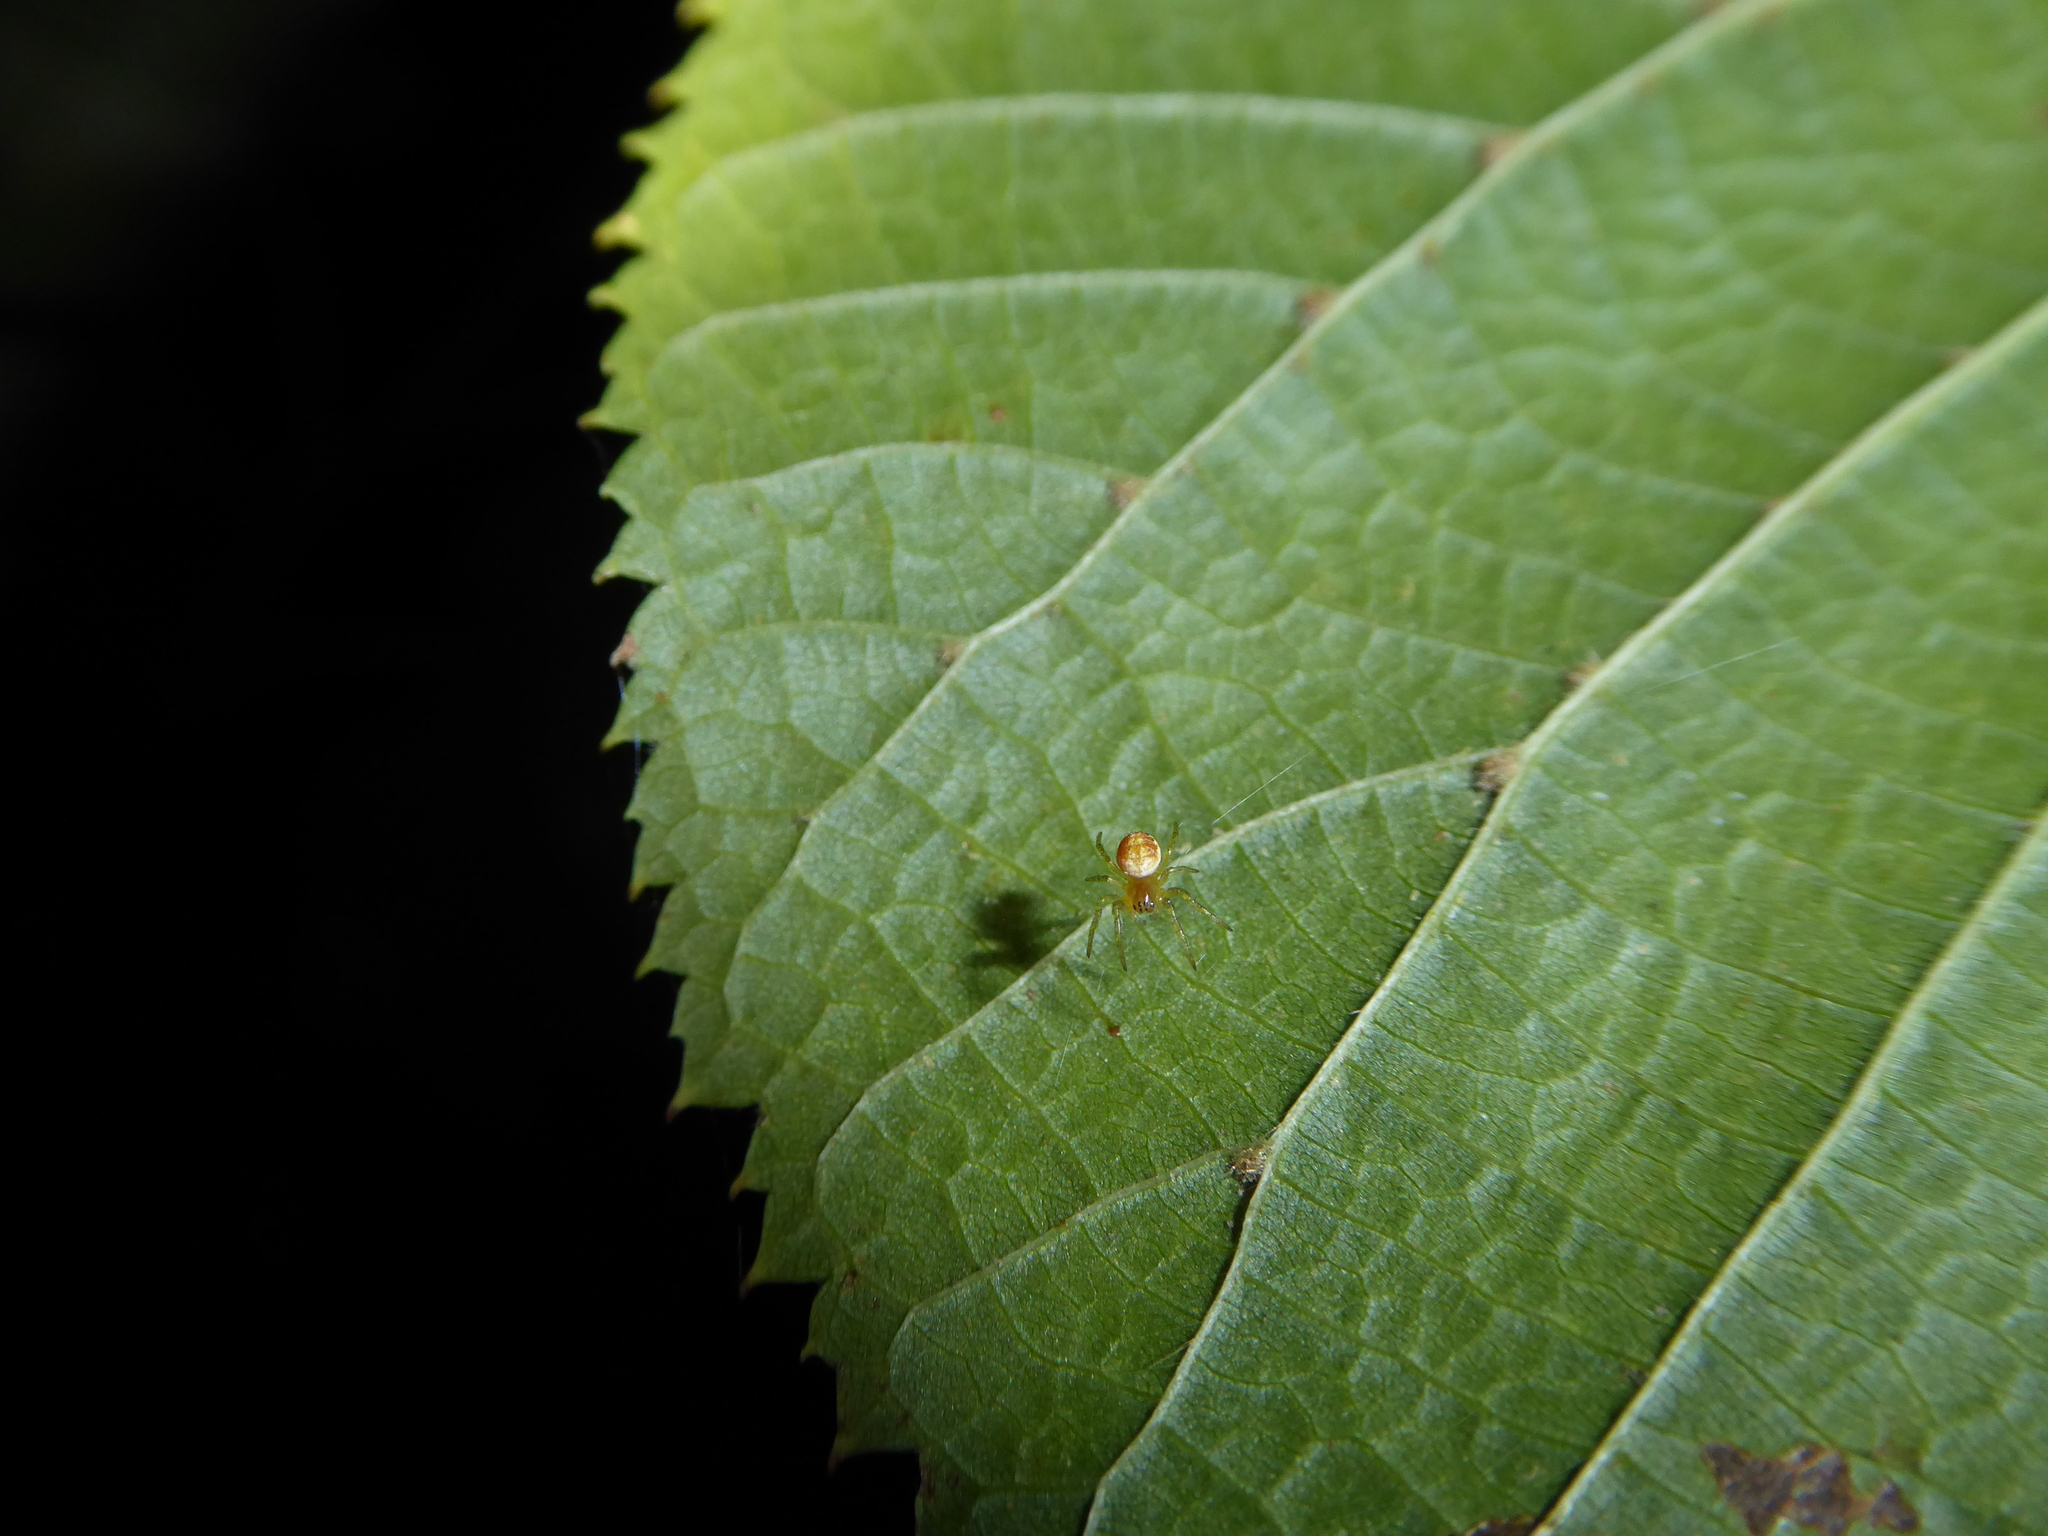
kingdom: Animalia
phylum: Arthropoda
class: Arachnida
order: Araneae
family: Araneidae
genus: Araniella
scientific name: Araniella
